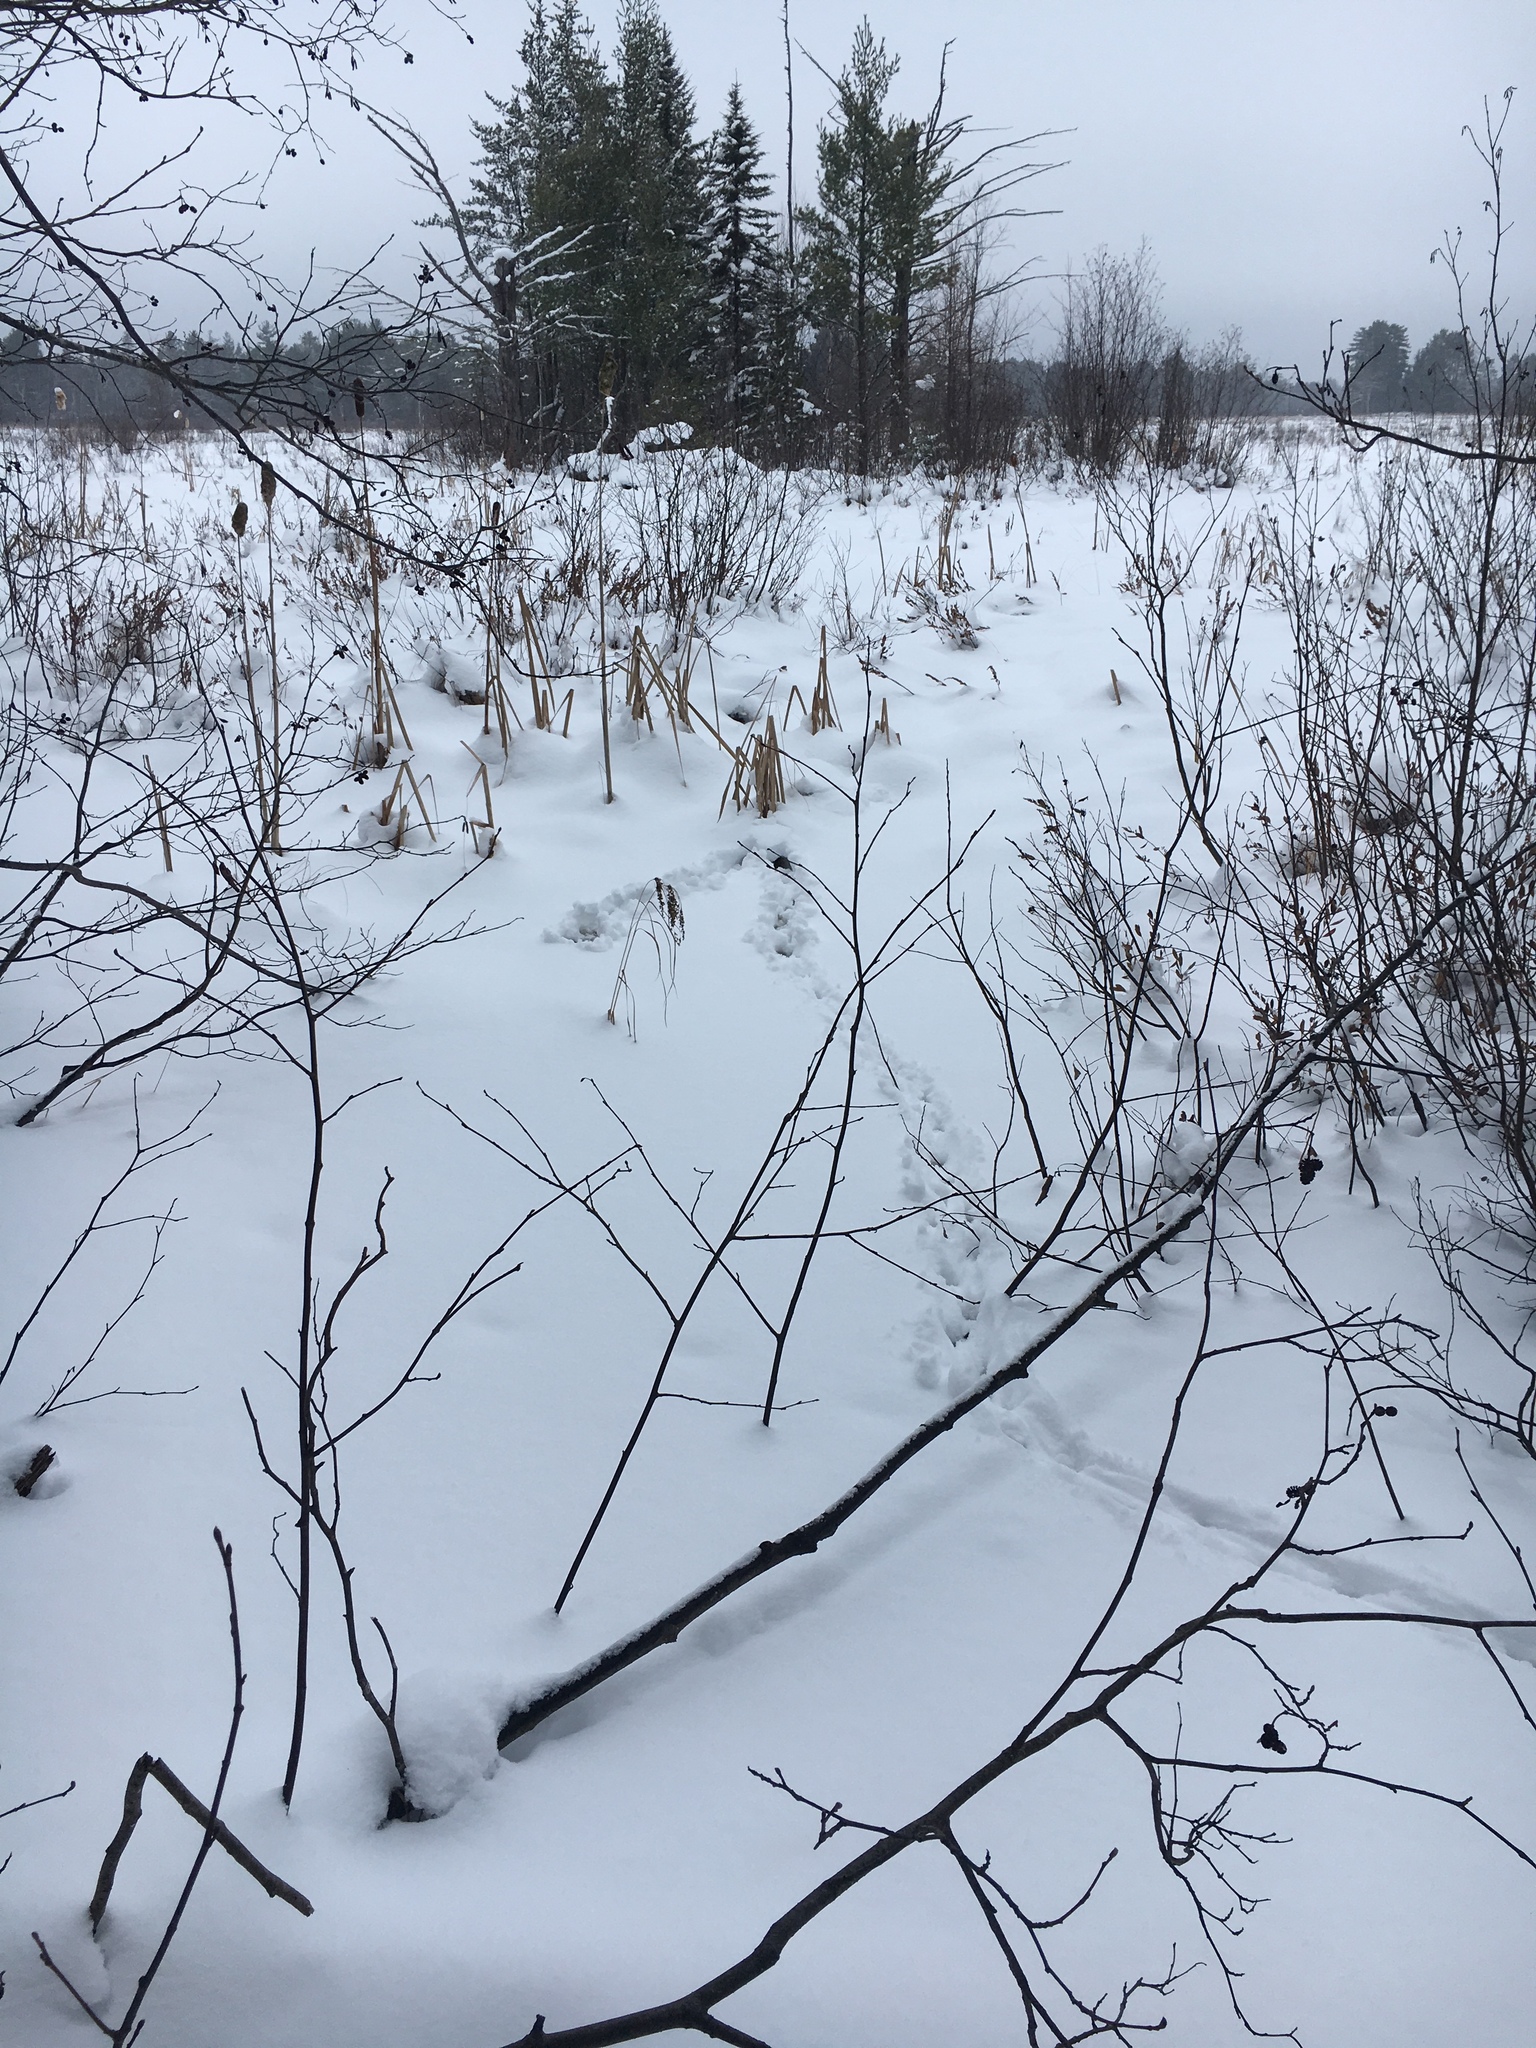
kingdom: Animalia
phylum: Chordata
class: Mammalia
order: Rodentia
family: Cricetidae
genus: Ondatra
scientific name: Ondatra zibethicus
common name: Muskrat
